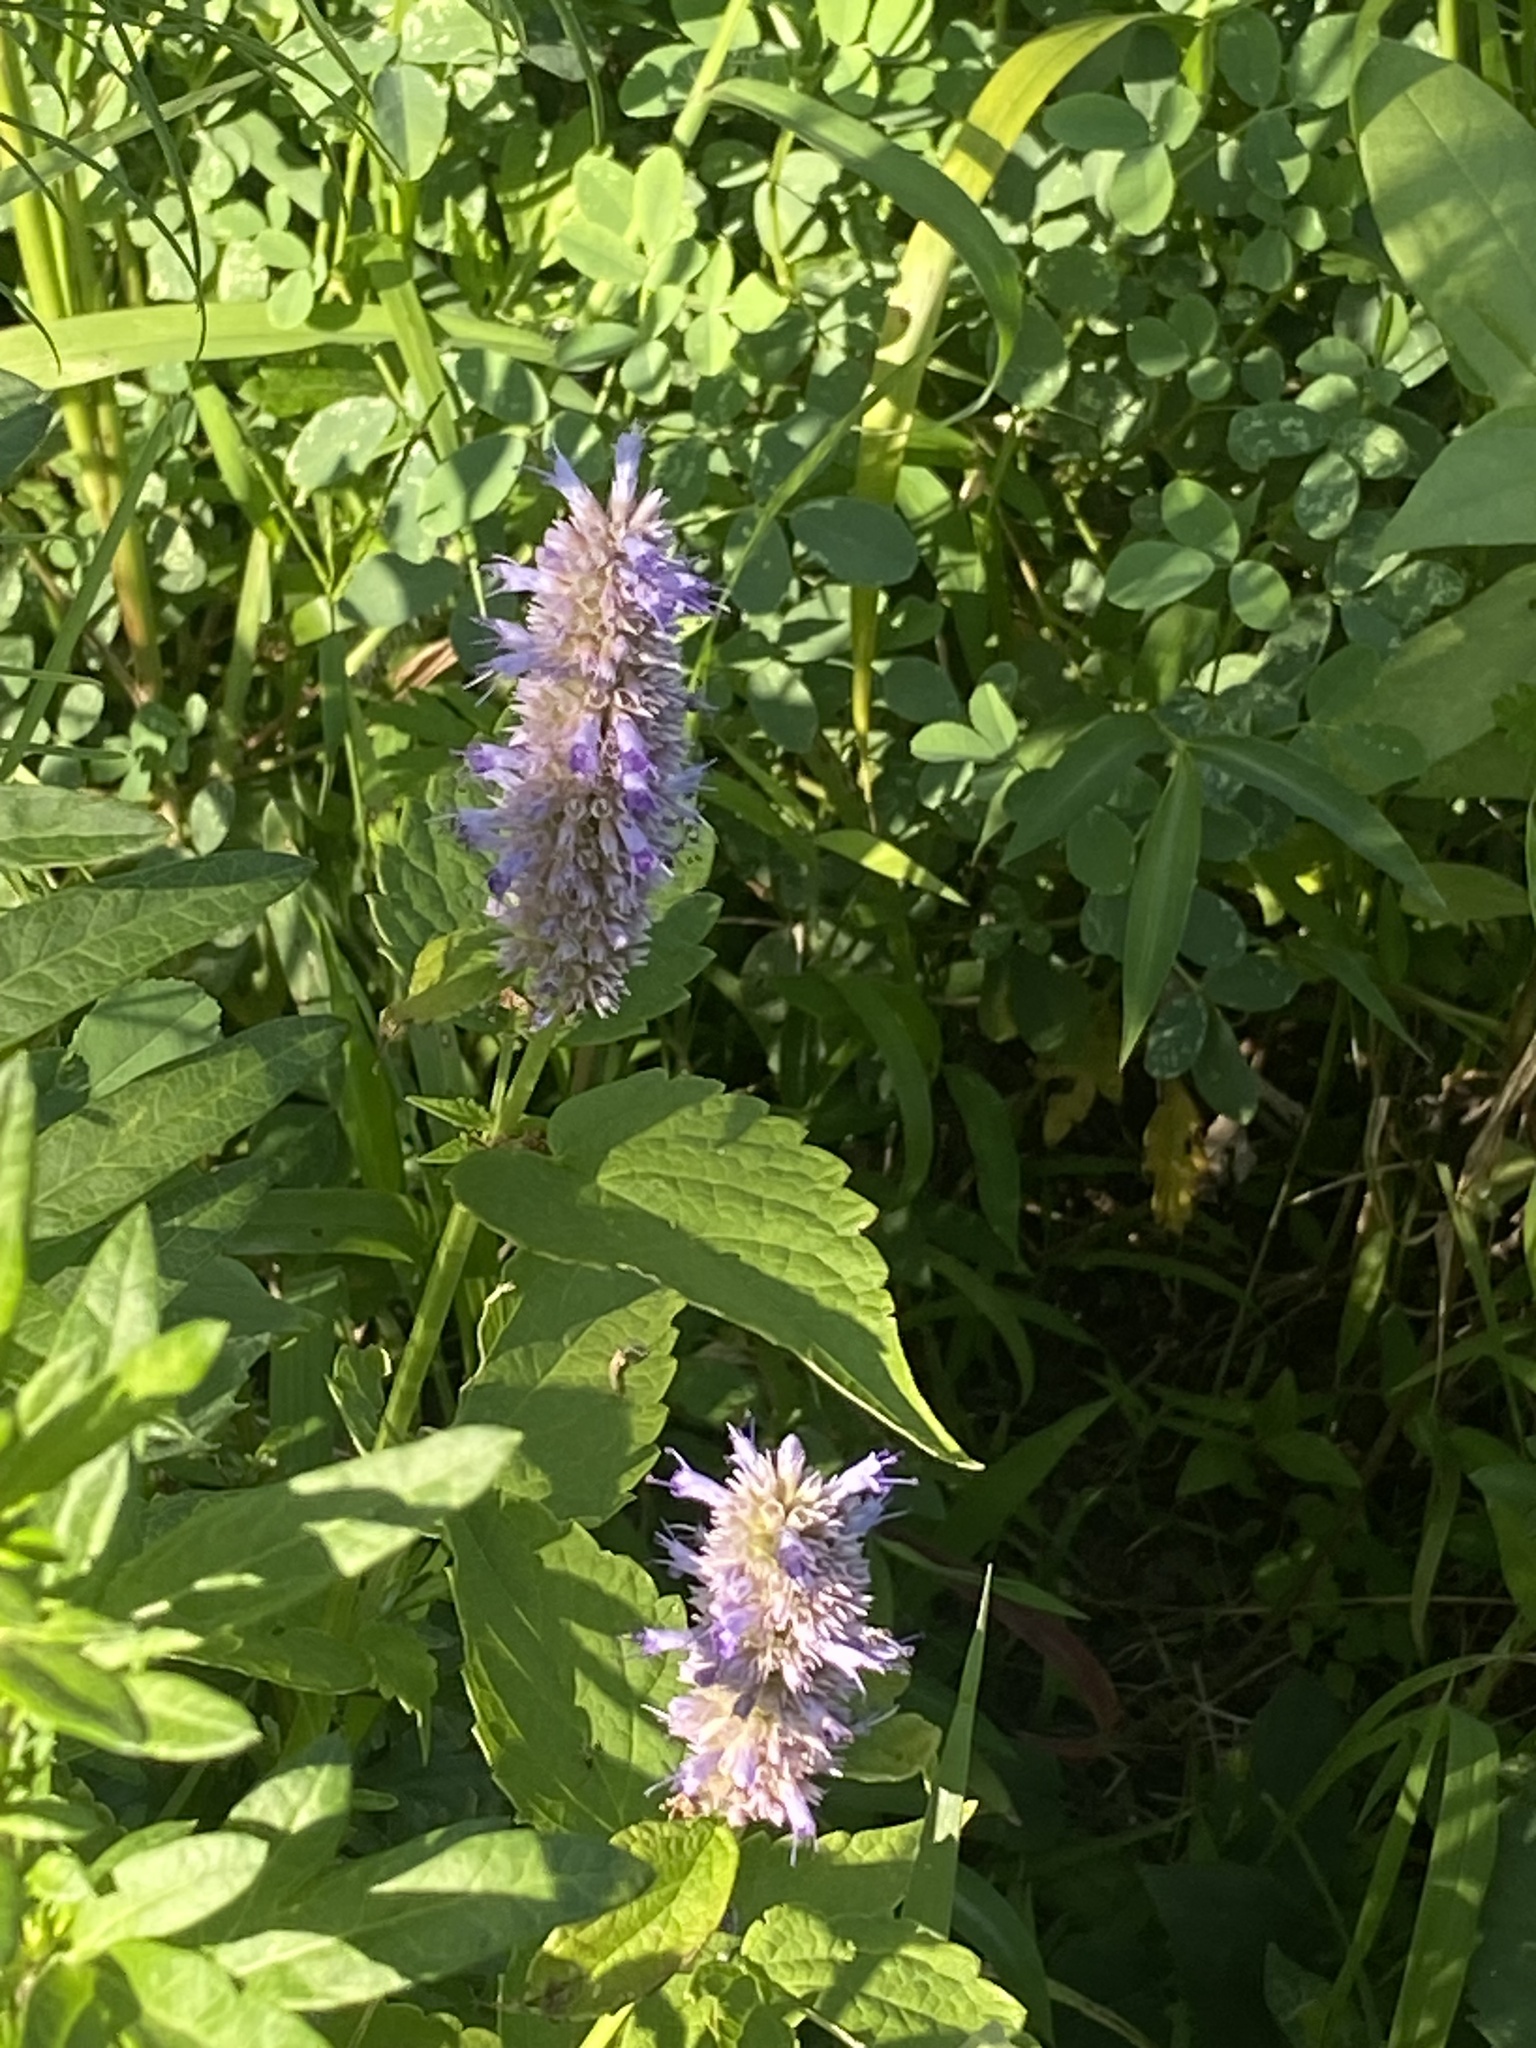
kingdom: Plantae
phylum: Tracheophyta
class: Magnoliopsida
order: Lamiales
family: Lamiaceae
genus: Agastache
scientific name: Agastache foeniculum
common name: Anise hyssop
